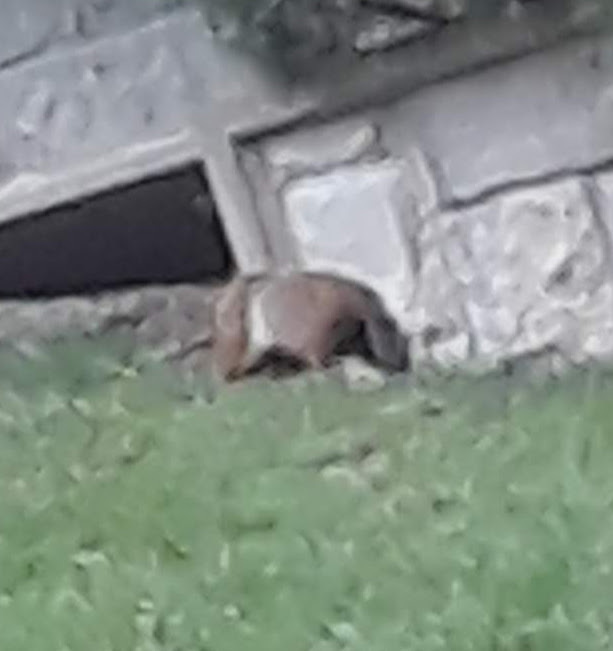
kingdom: Animalia
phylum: Chordata
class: Mammalia
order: Rodentia
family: Sciuridae
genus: Marmota
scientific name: Marmota monax
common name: Groundhog
